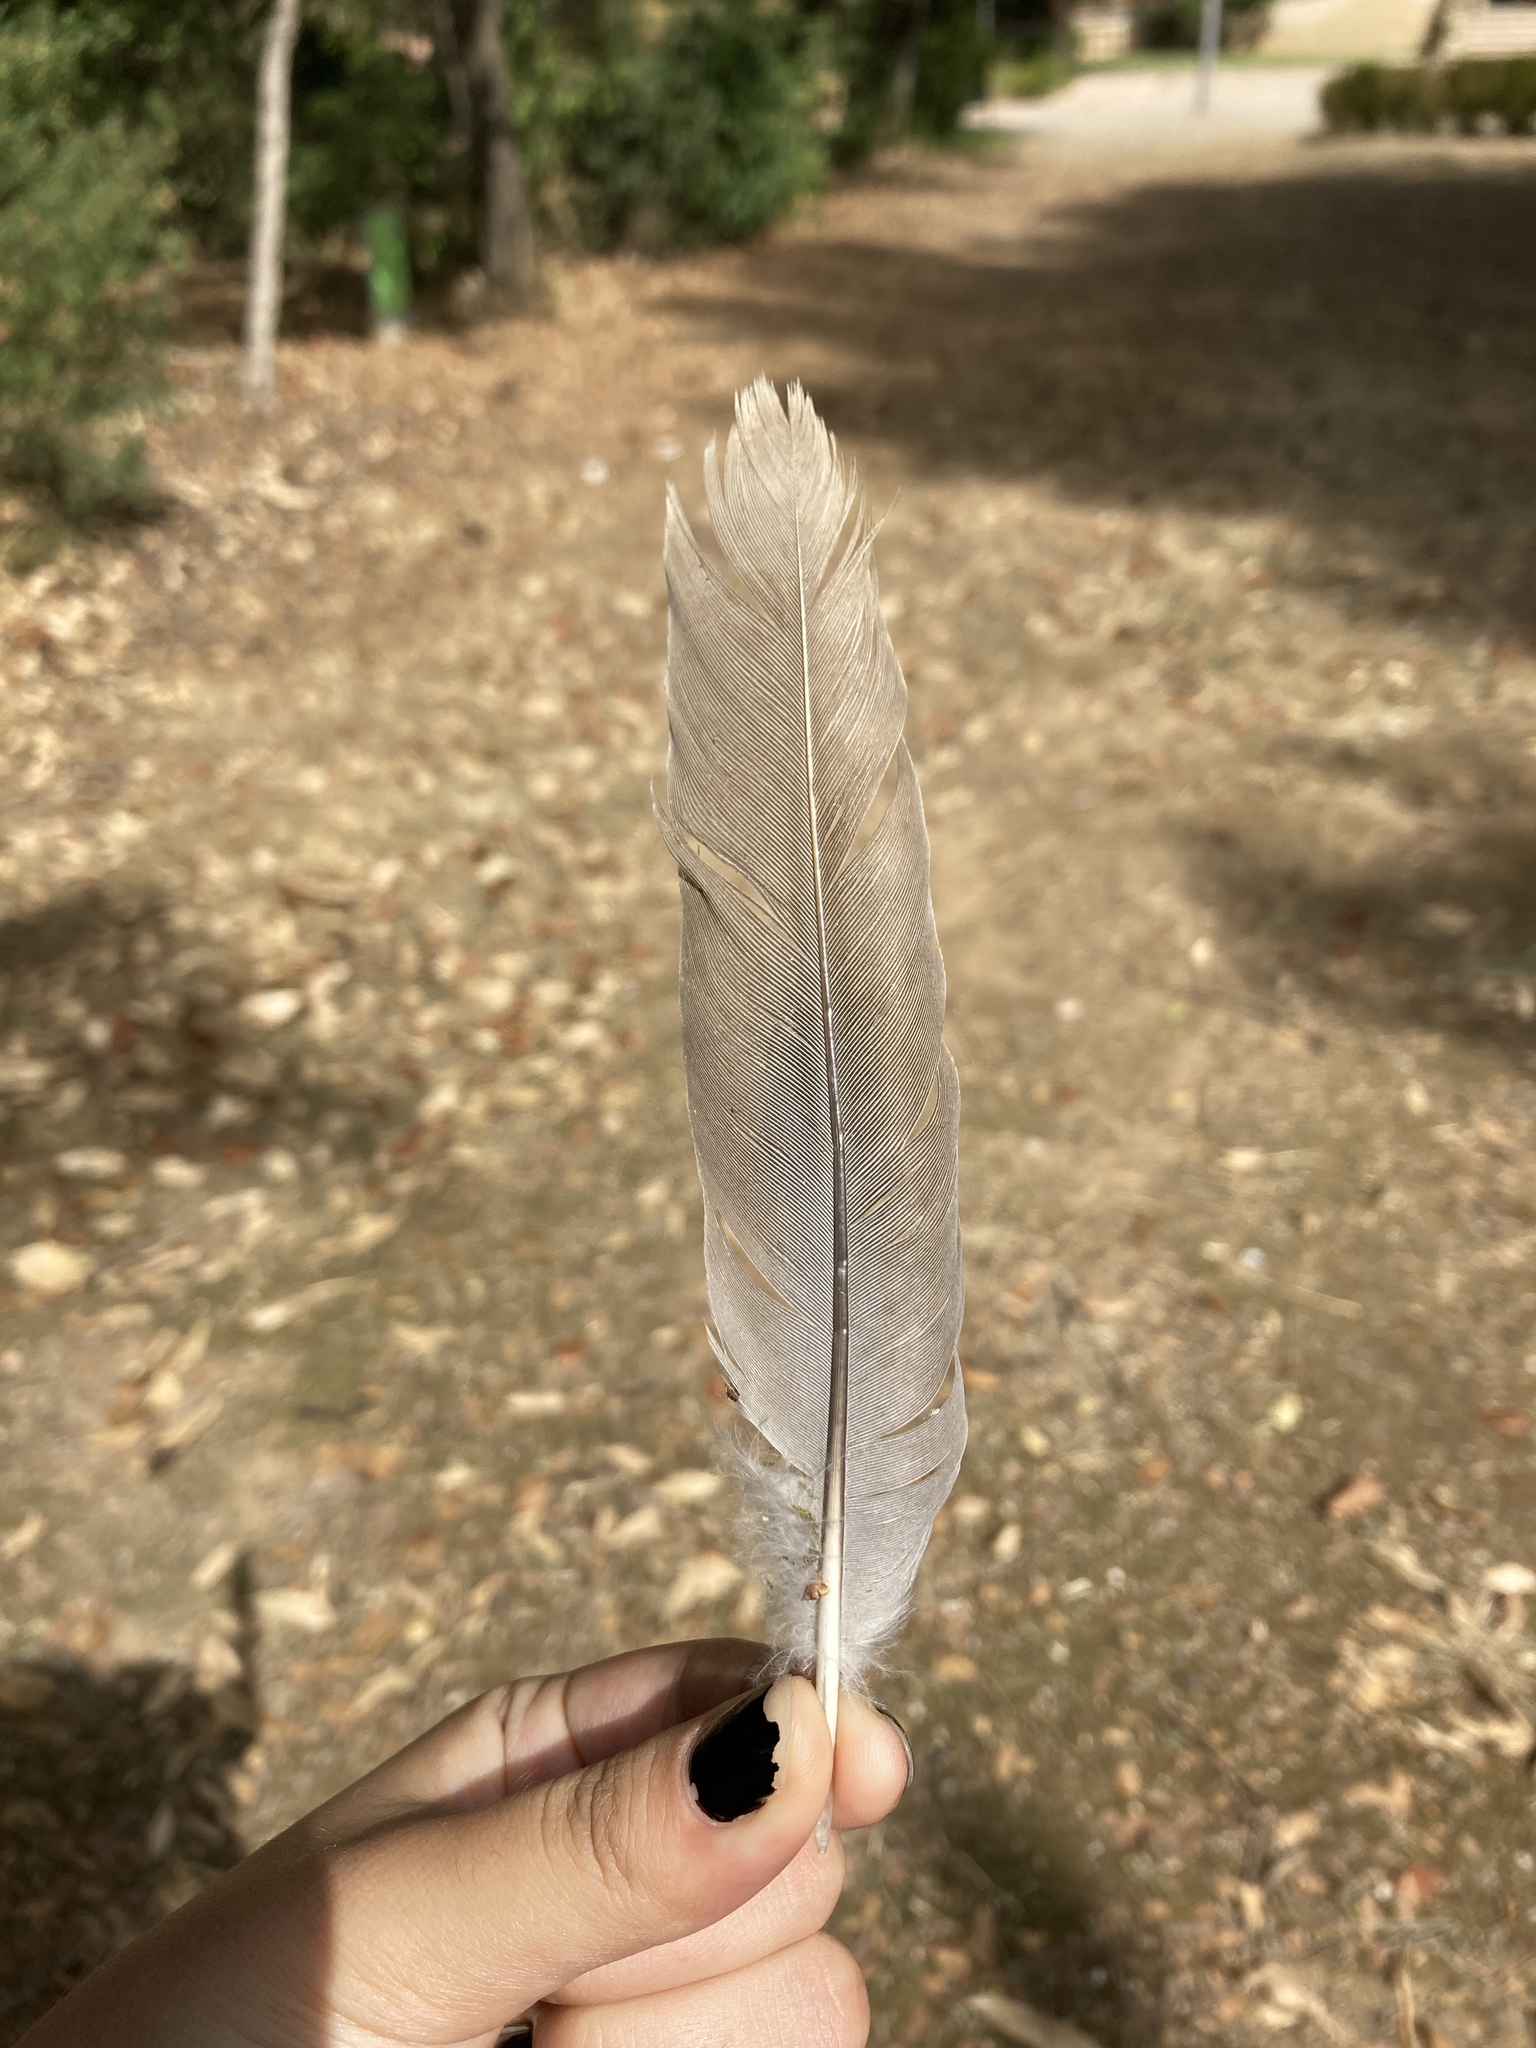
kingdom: Animalia
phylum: Chordata
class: Aves
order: Columbiformes
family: Columbidae
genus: Streptopelia
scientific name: Streptopelia decaocto
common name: Eurasian collared dove
